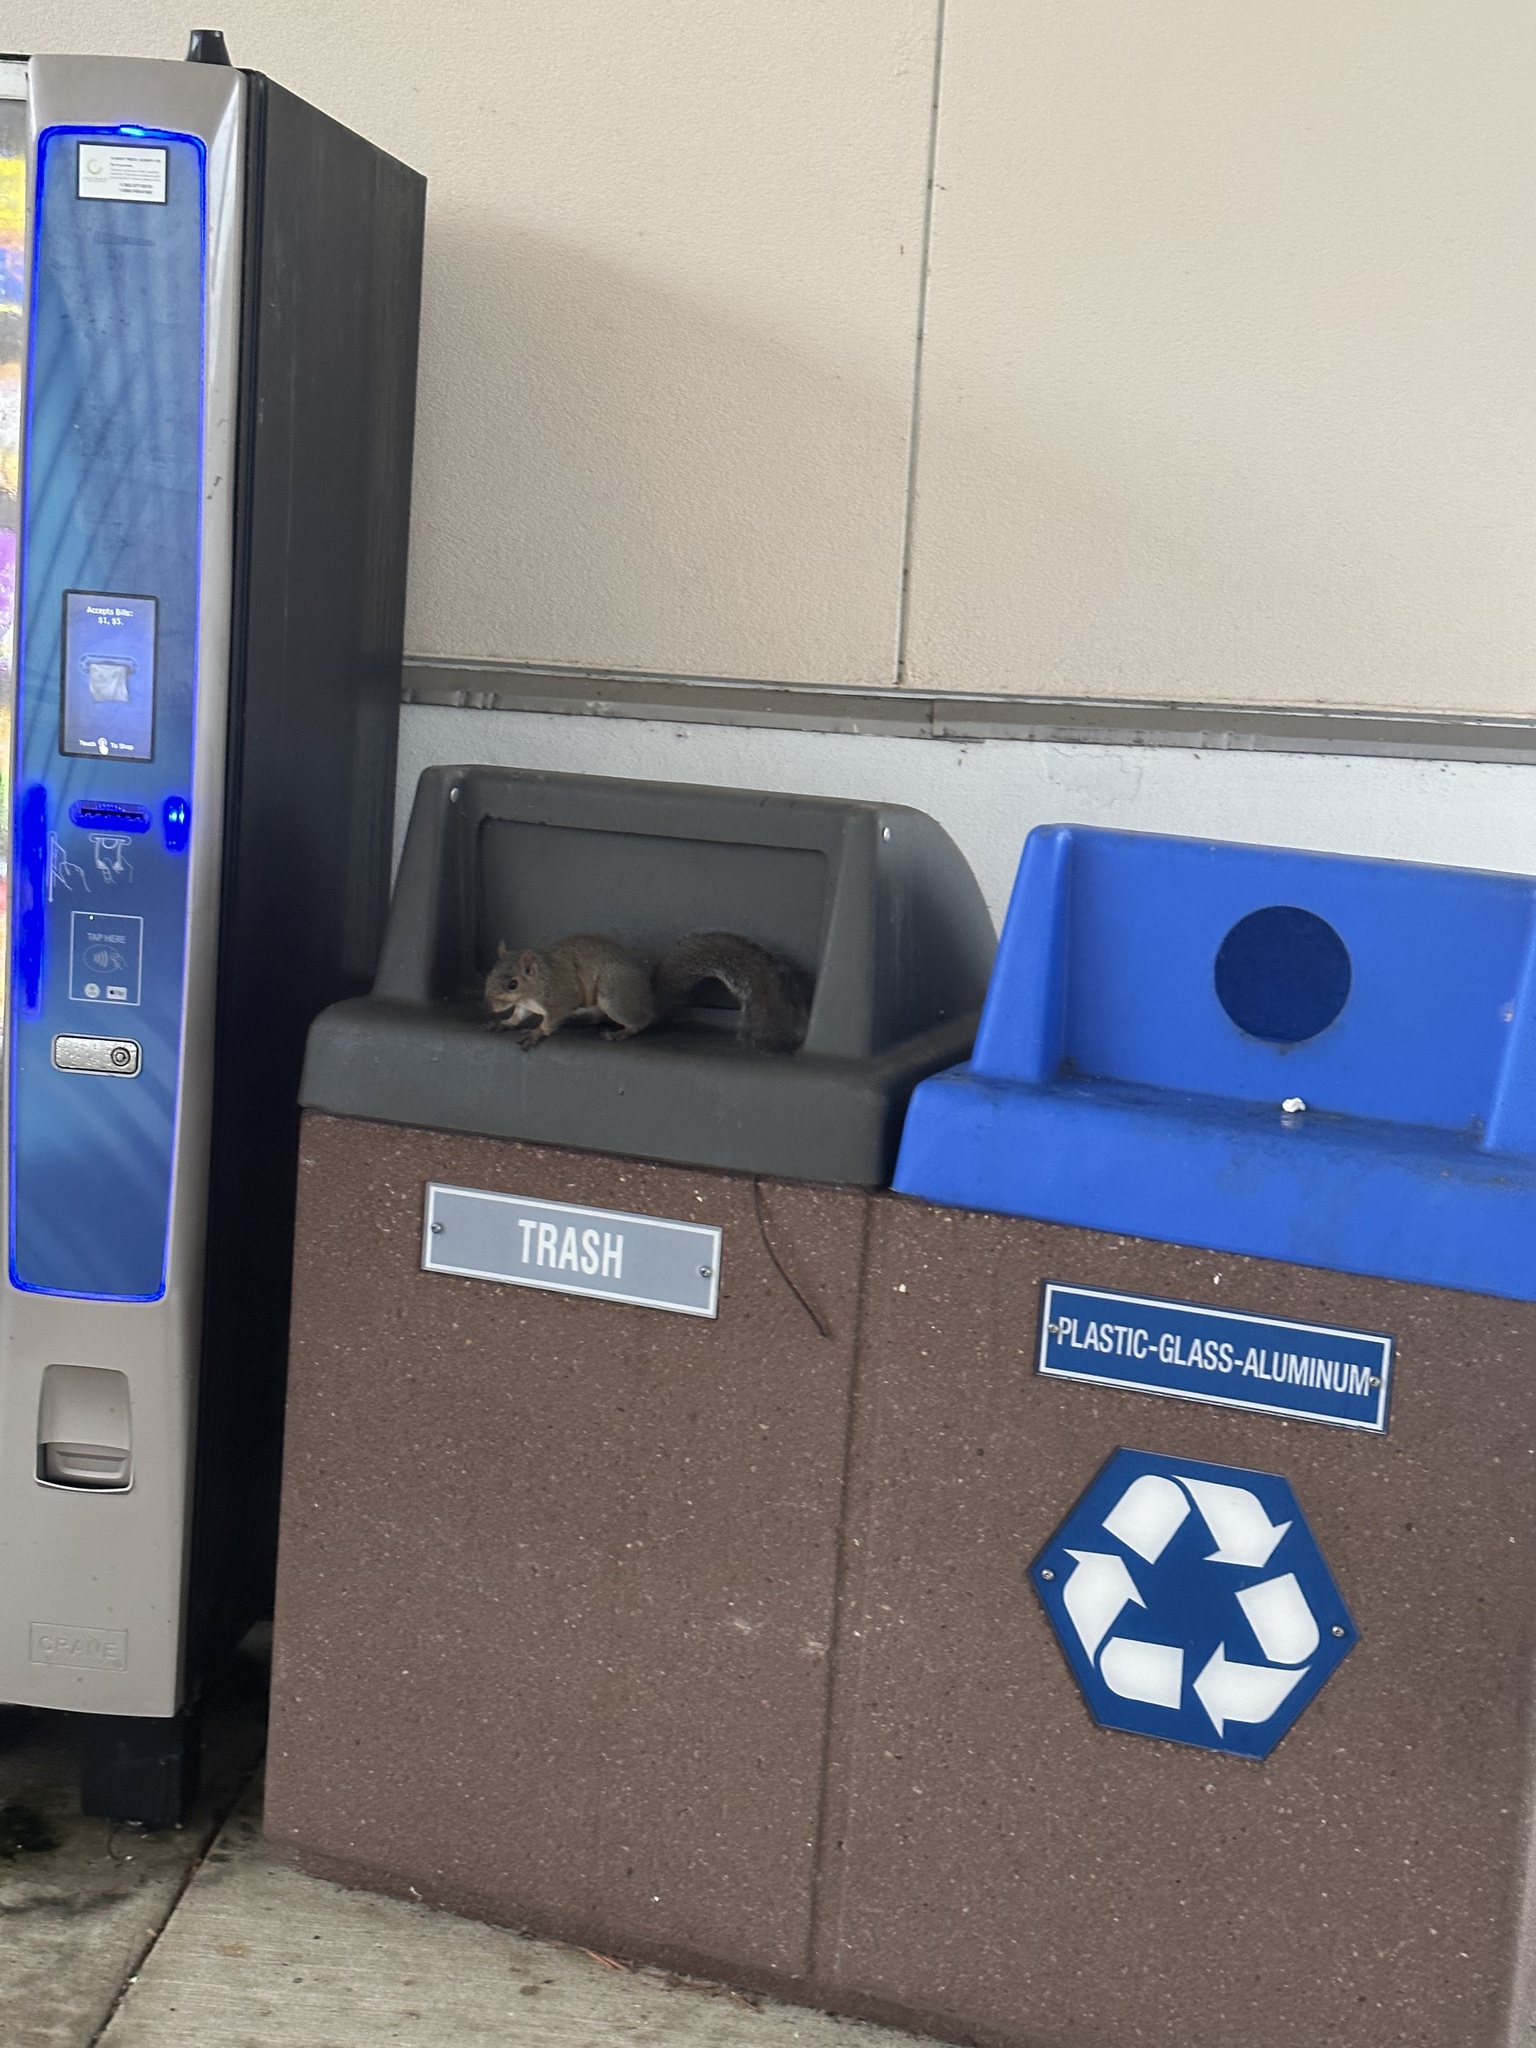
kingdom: Animalia
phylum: Chordata
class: Mammalia
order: Rodentia
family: Sciuridae
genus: Sciurus
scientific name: Sciurus carolinensis
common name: Eastern gray squirrel
